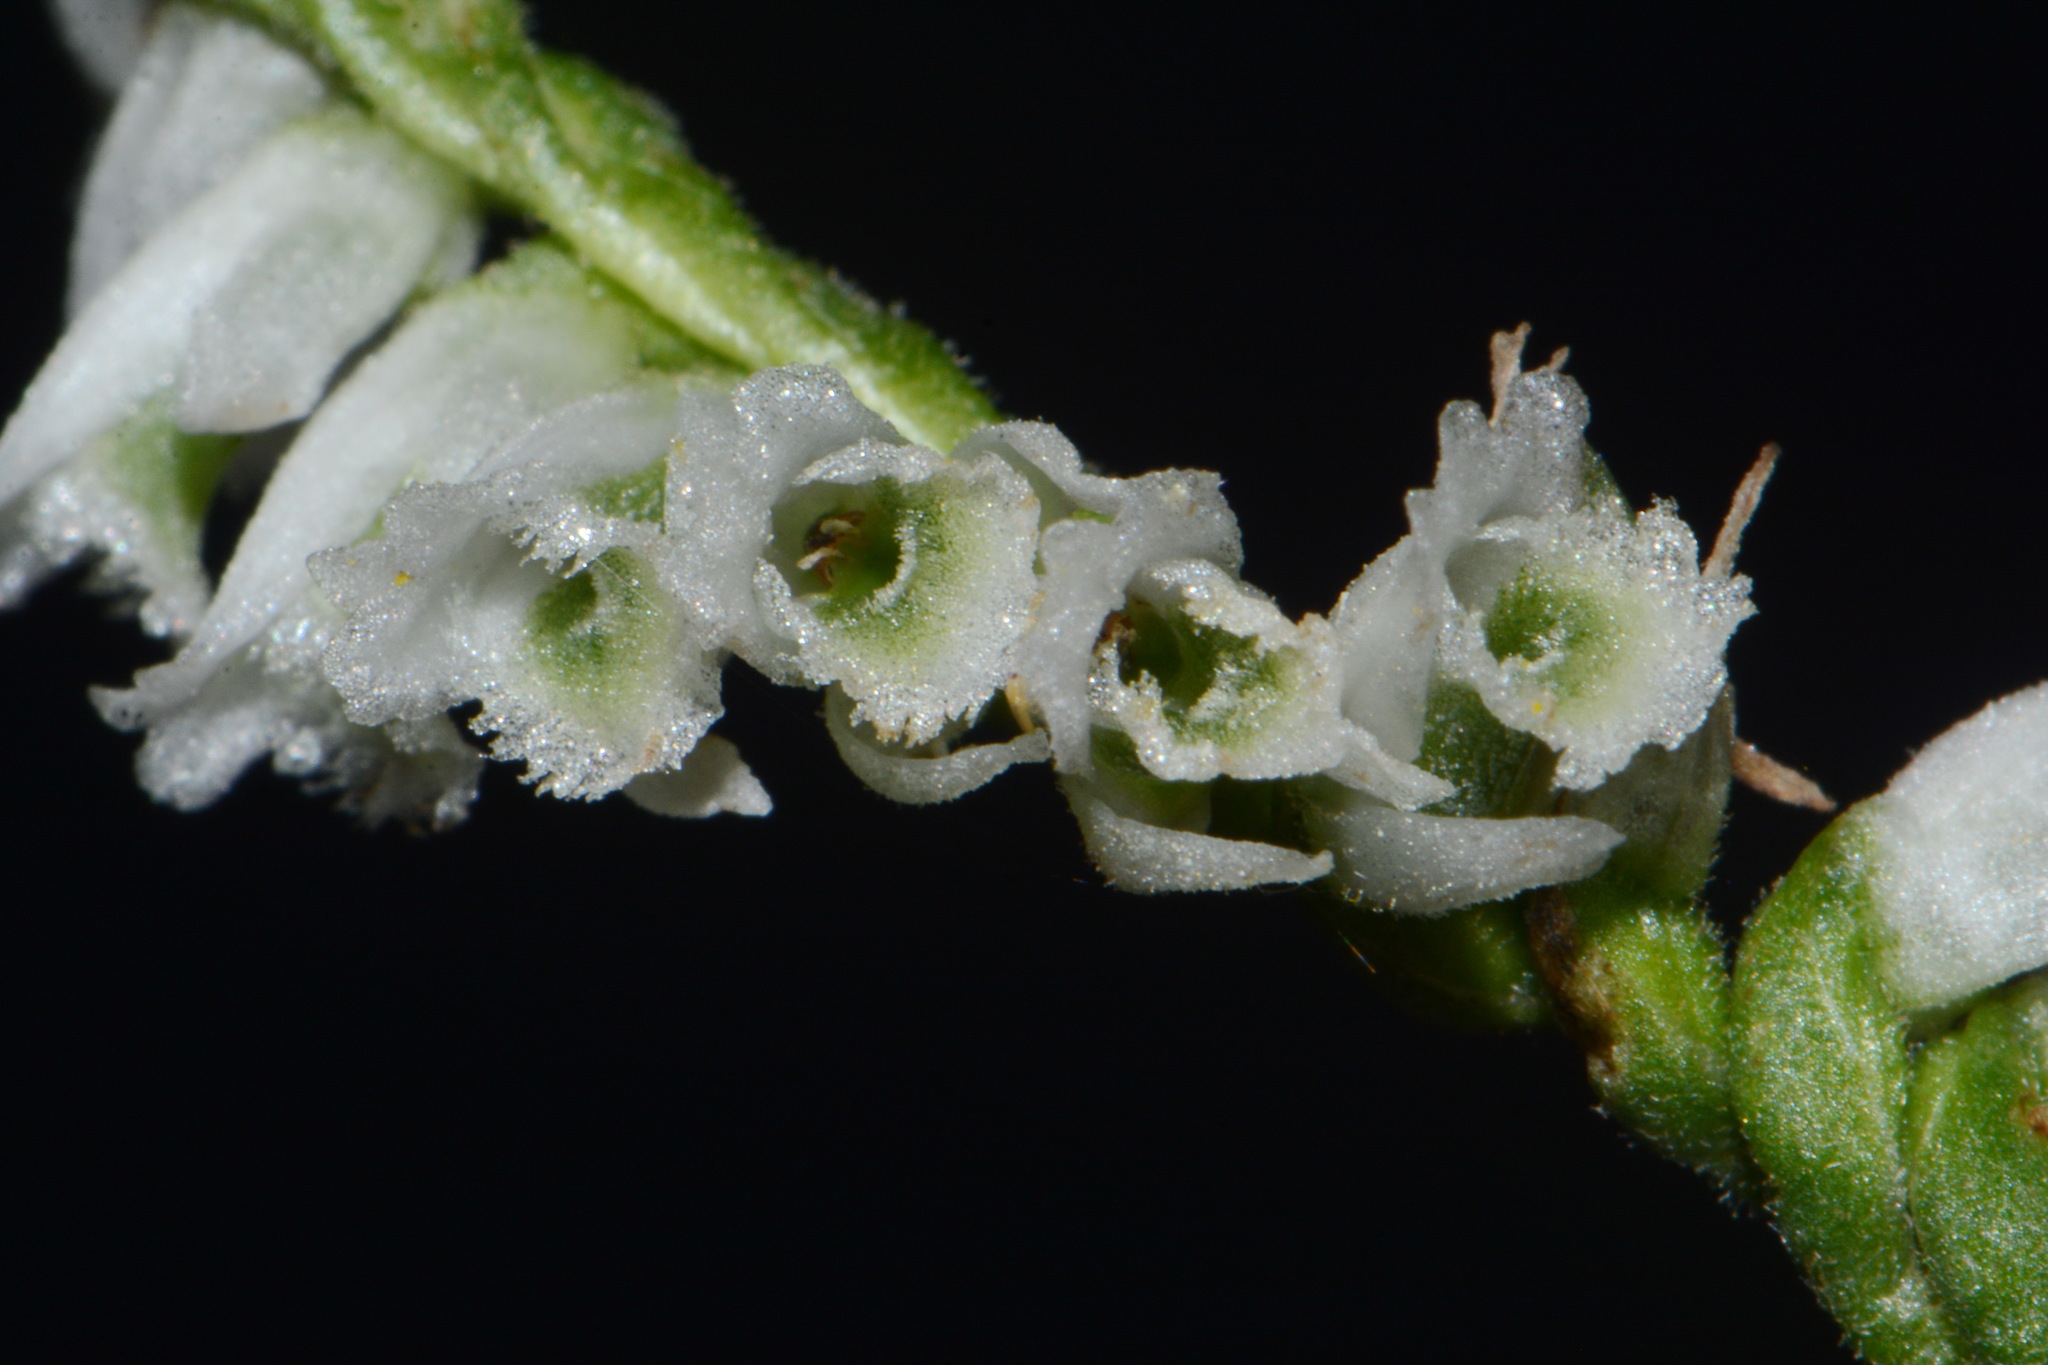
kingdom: Plantae
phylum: Tracheophyta
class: Liliopsida
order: Asparagales
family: Orchidaceae
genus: Spiranthes
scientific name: Spiranthes lacera
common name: Northern slender ladies'-tresses
